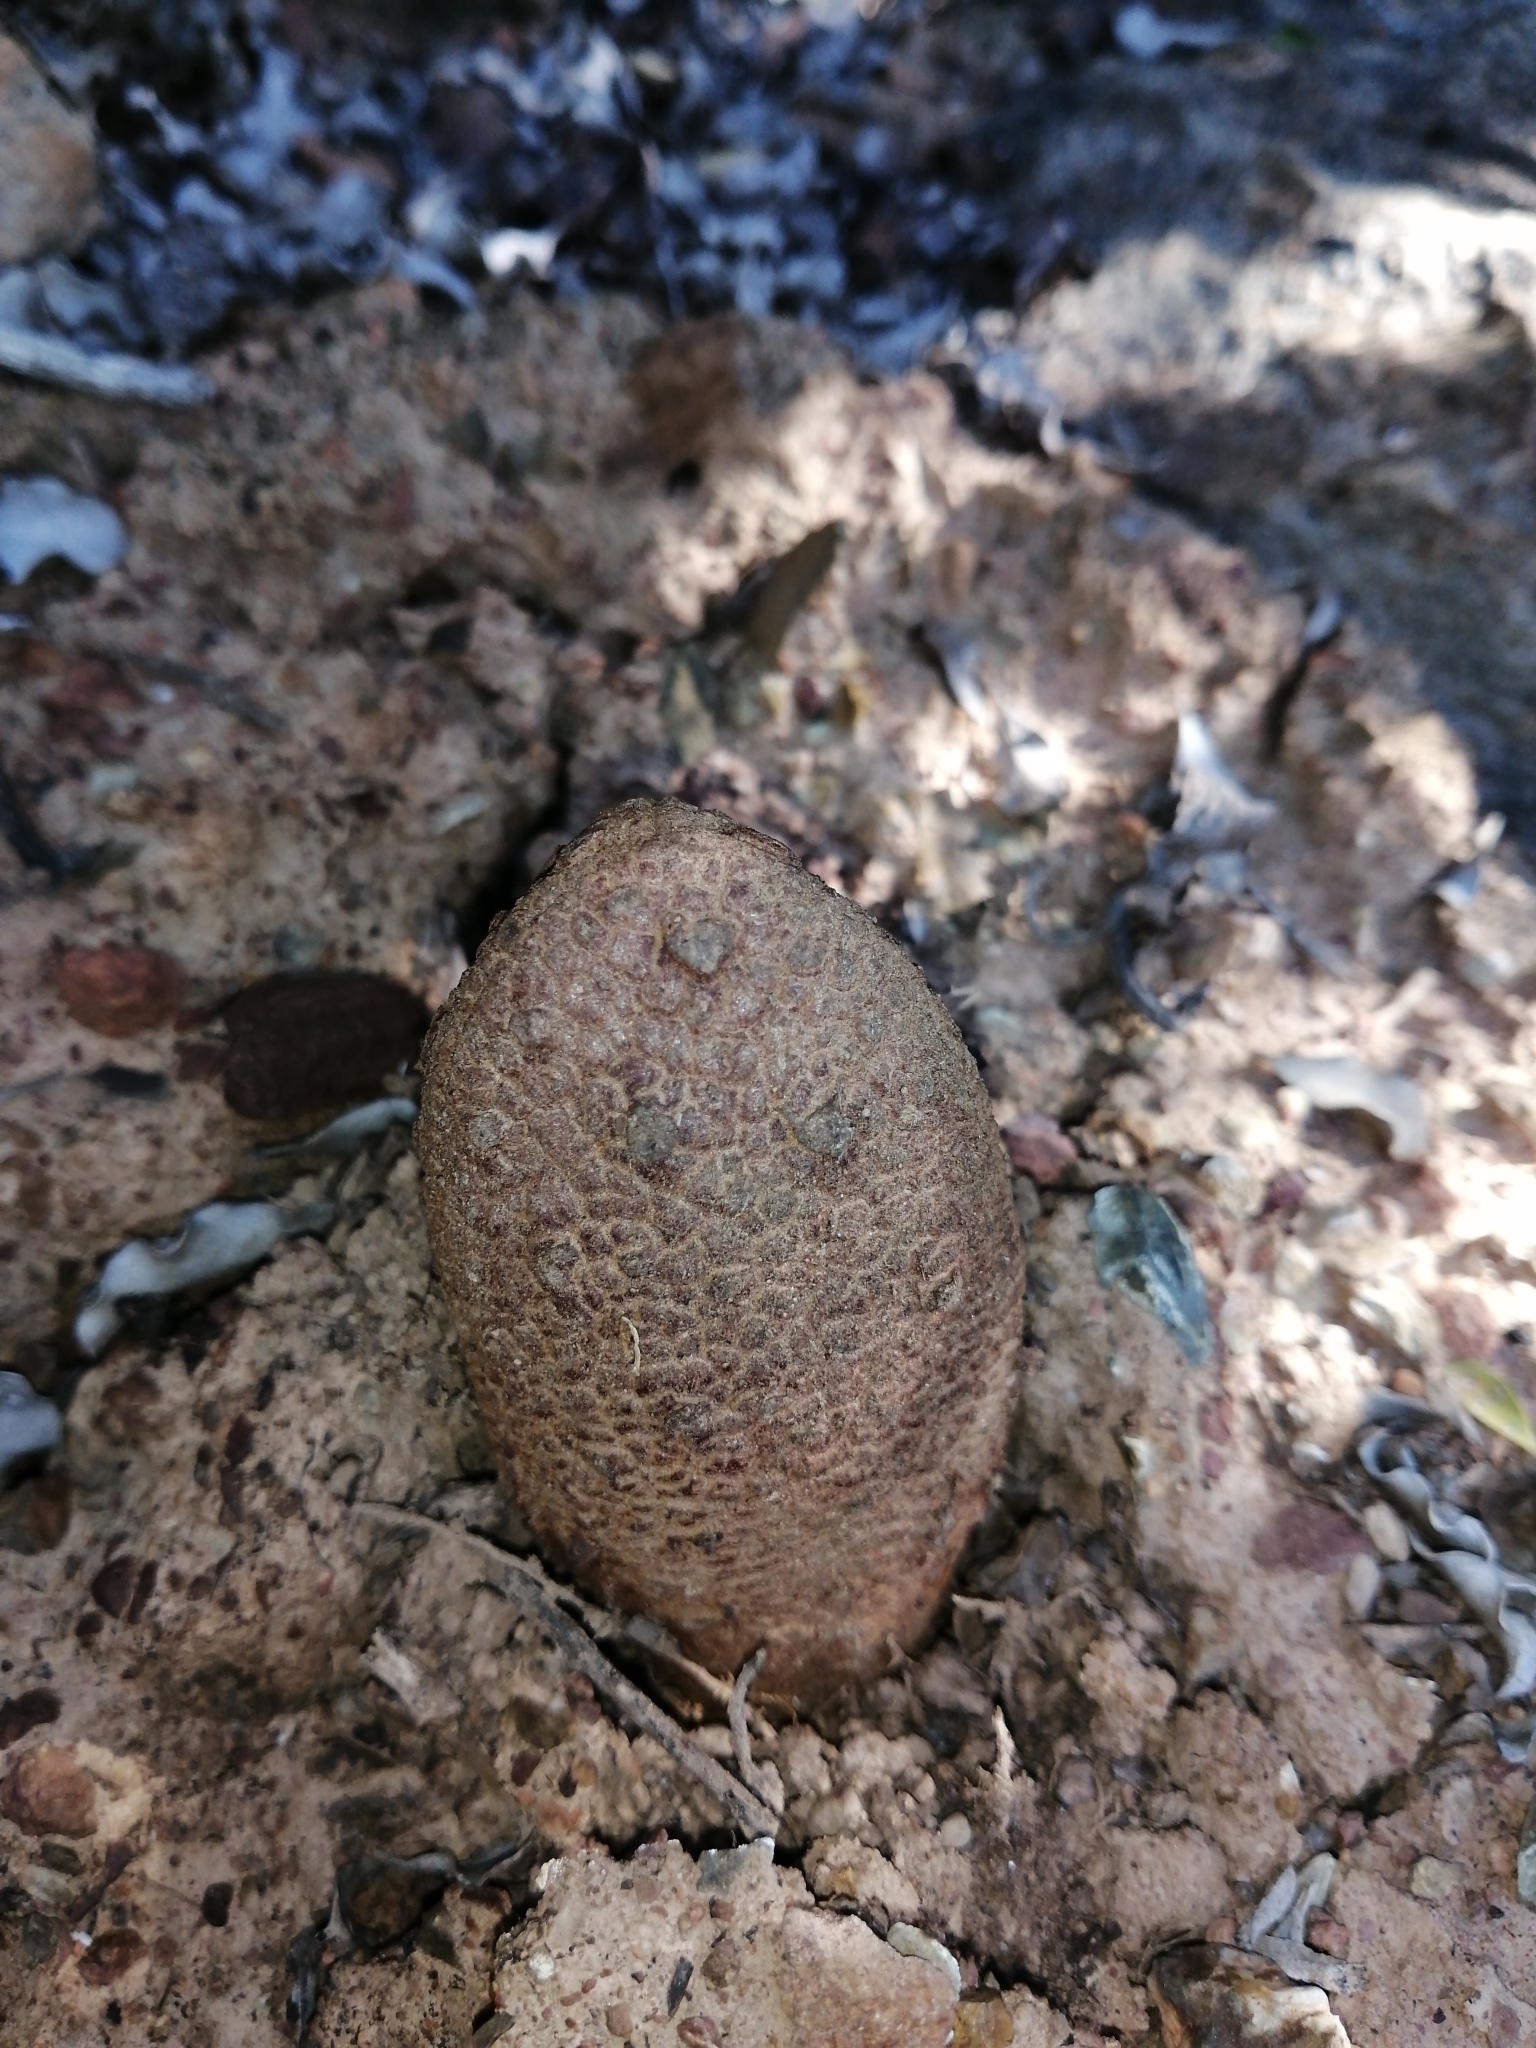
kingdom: Plantae
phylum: Tracheophyta
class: Magnoliopsida
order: Piperales
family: Hydnoraceae
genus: Hydnora
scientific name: Hydnora africana
